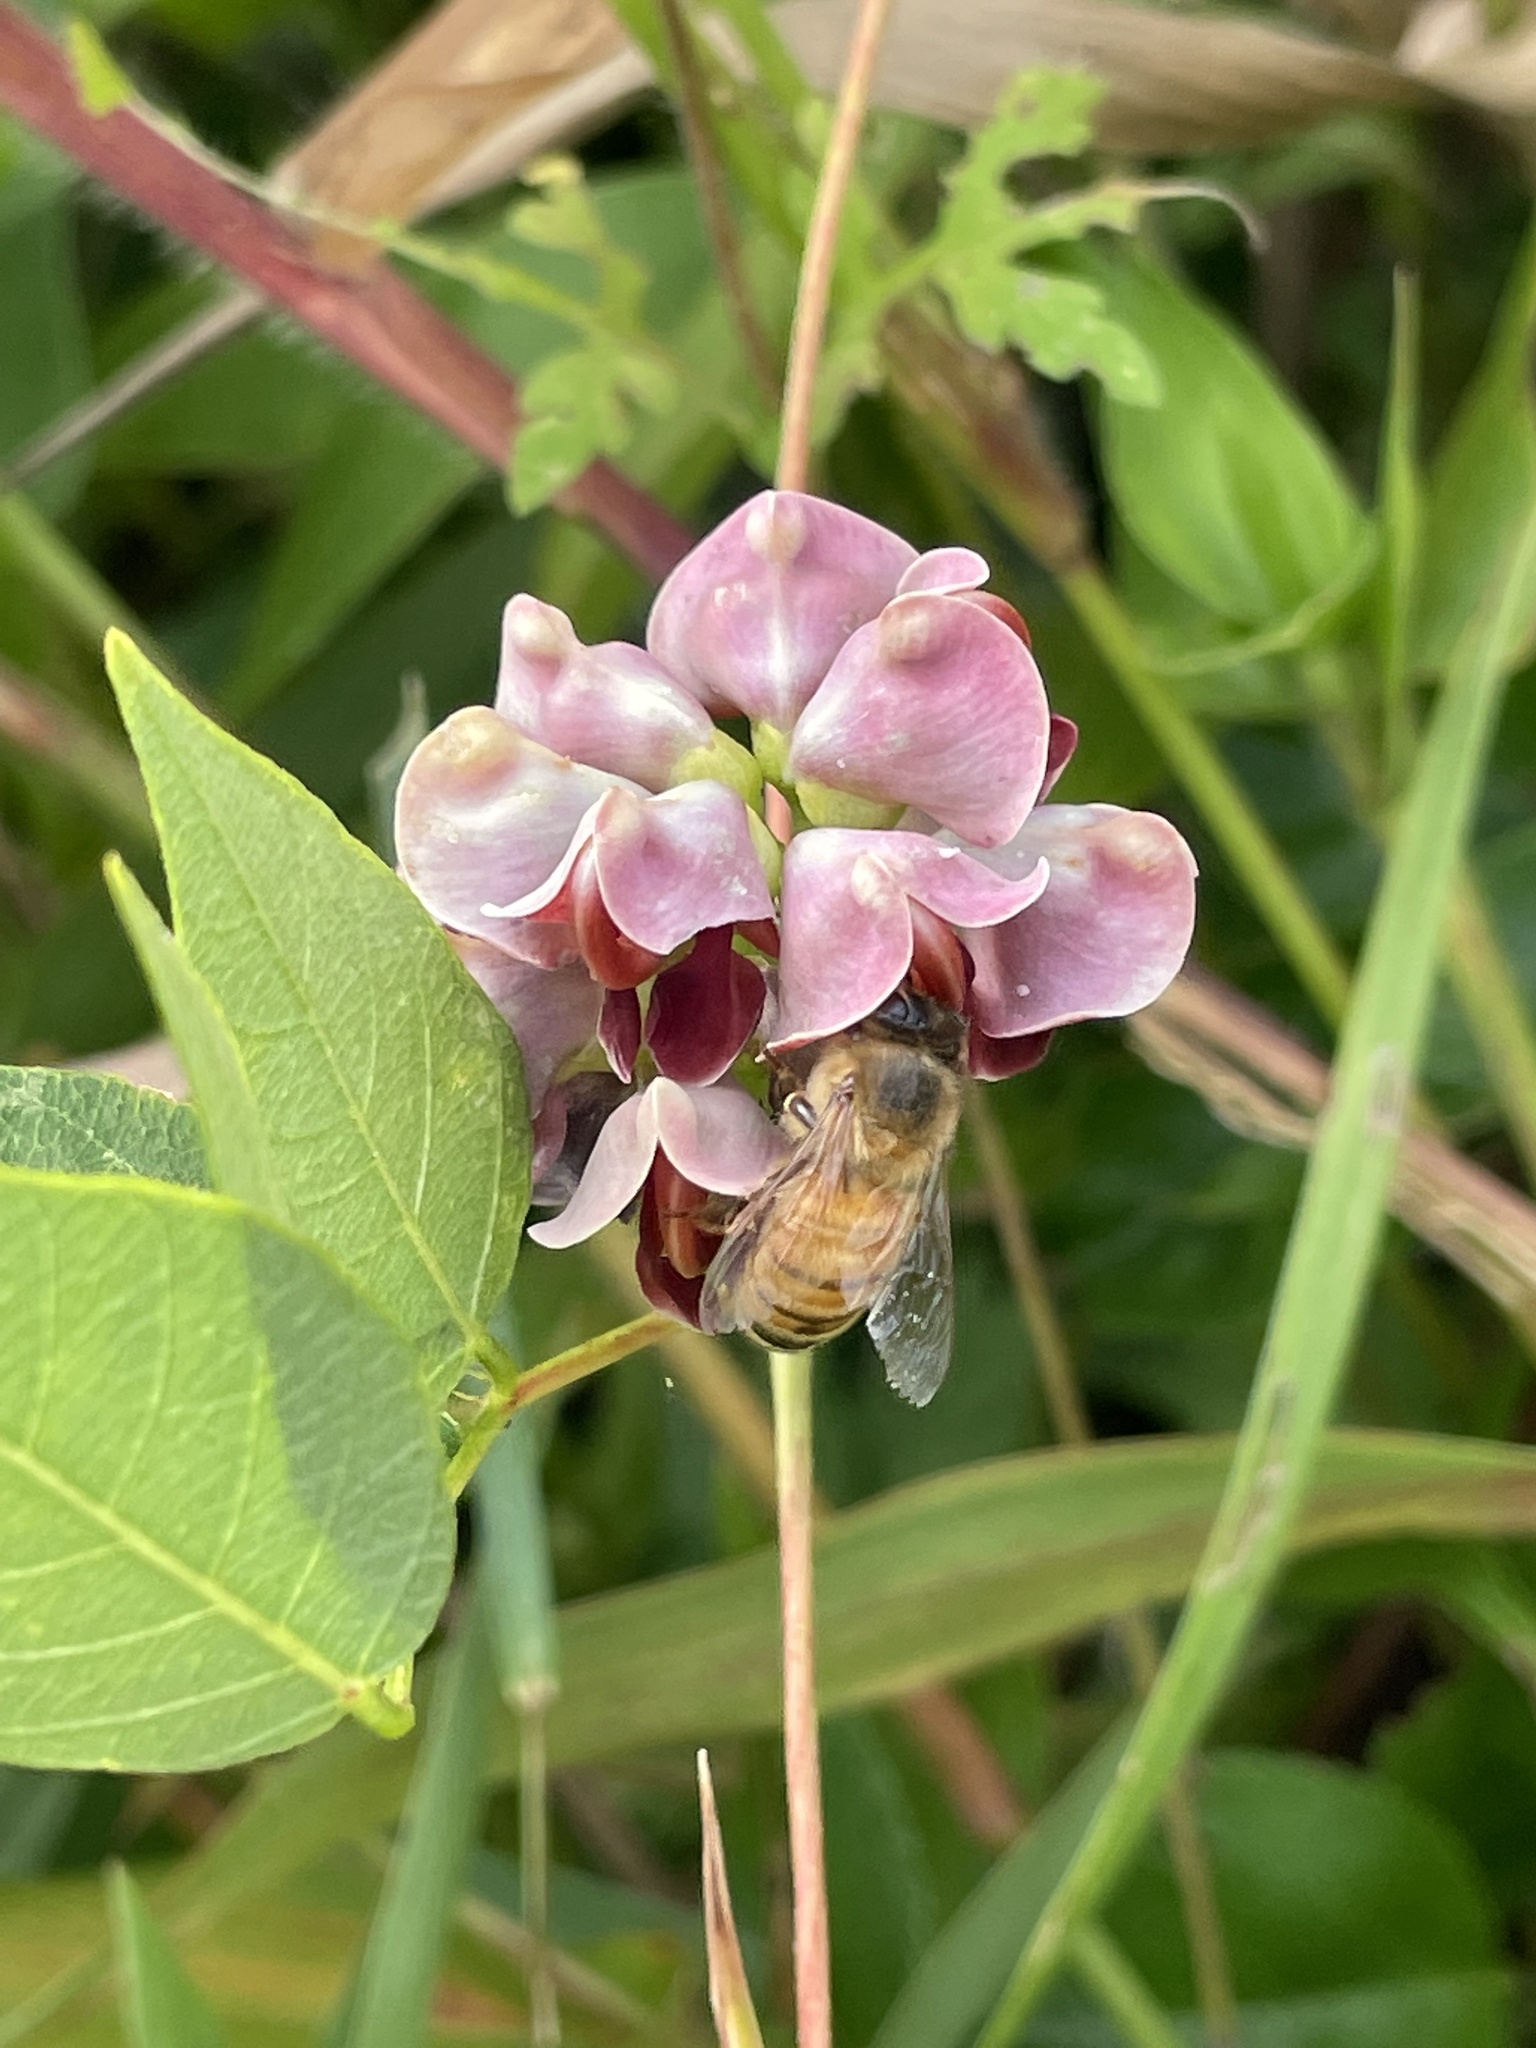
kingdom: Animalia
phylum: Arthropoda
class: Insecta
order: Hymenoptera
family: Apidae
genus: Apis
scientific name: Apis mellifera
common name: Honey bee
